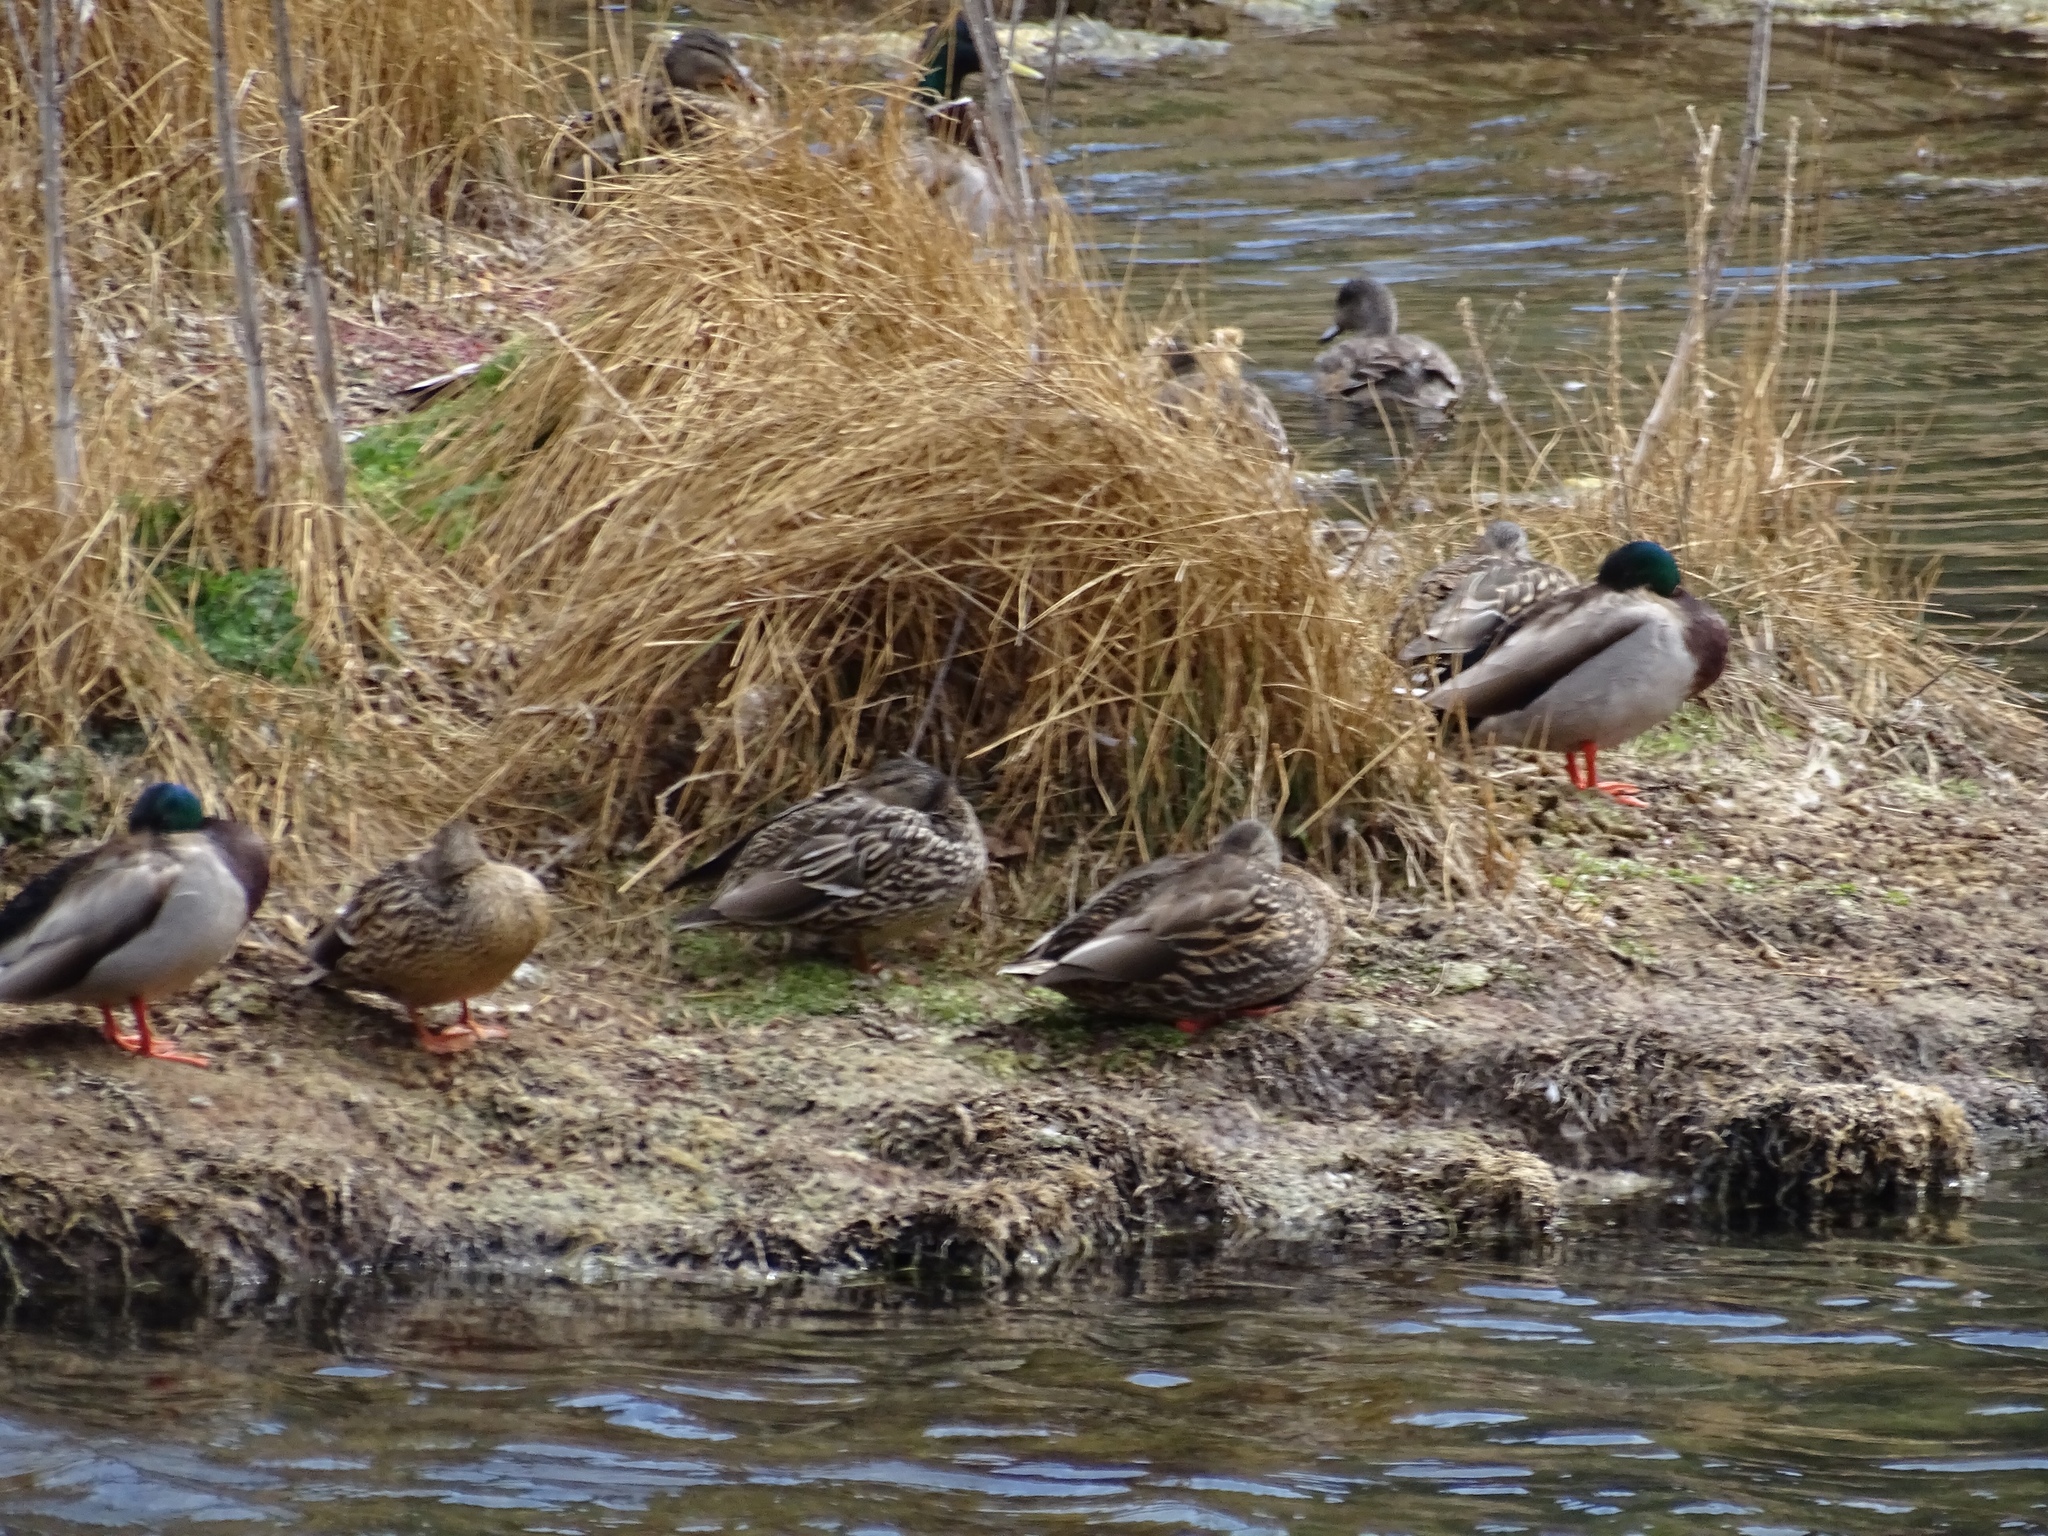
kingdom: Animalia
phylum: Chordata
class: Aves
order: Anseriformes
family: Anatidae
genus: Anas
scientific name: Anas platyrhynchos
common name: Mallard
